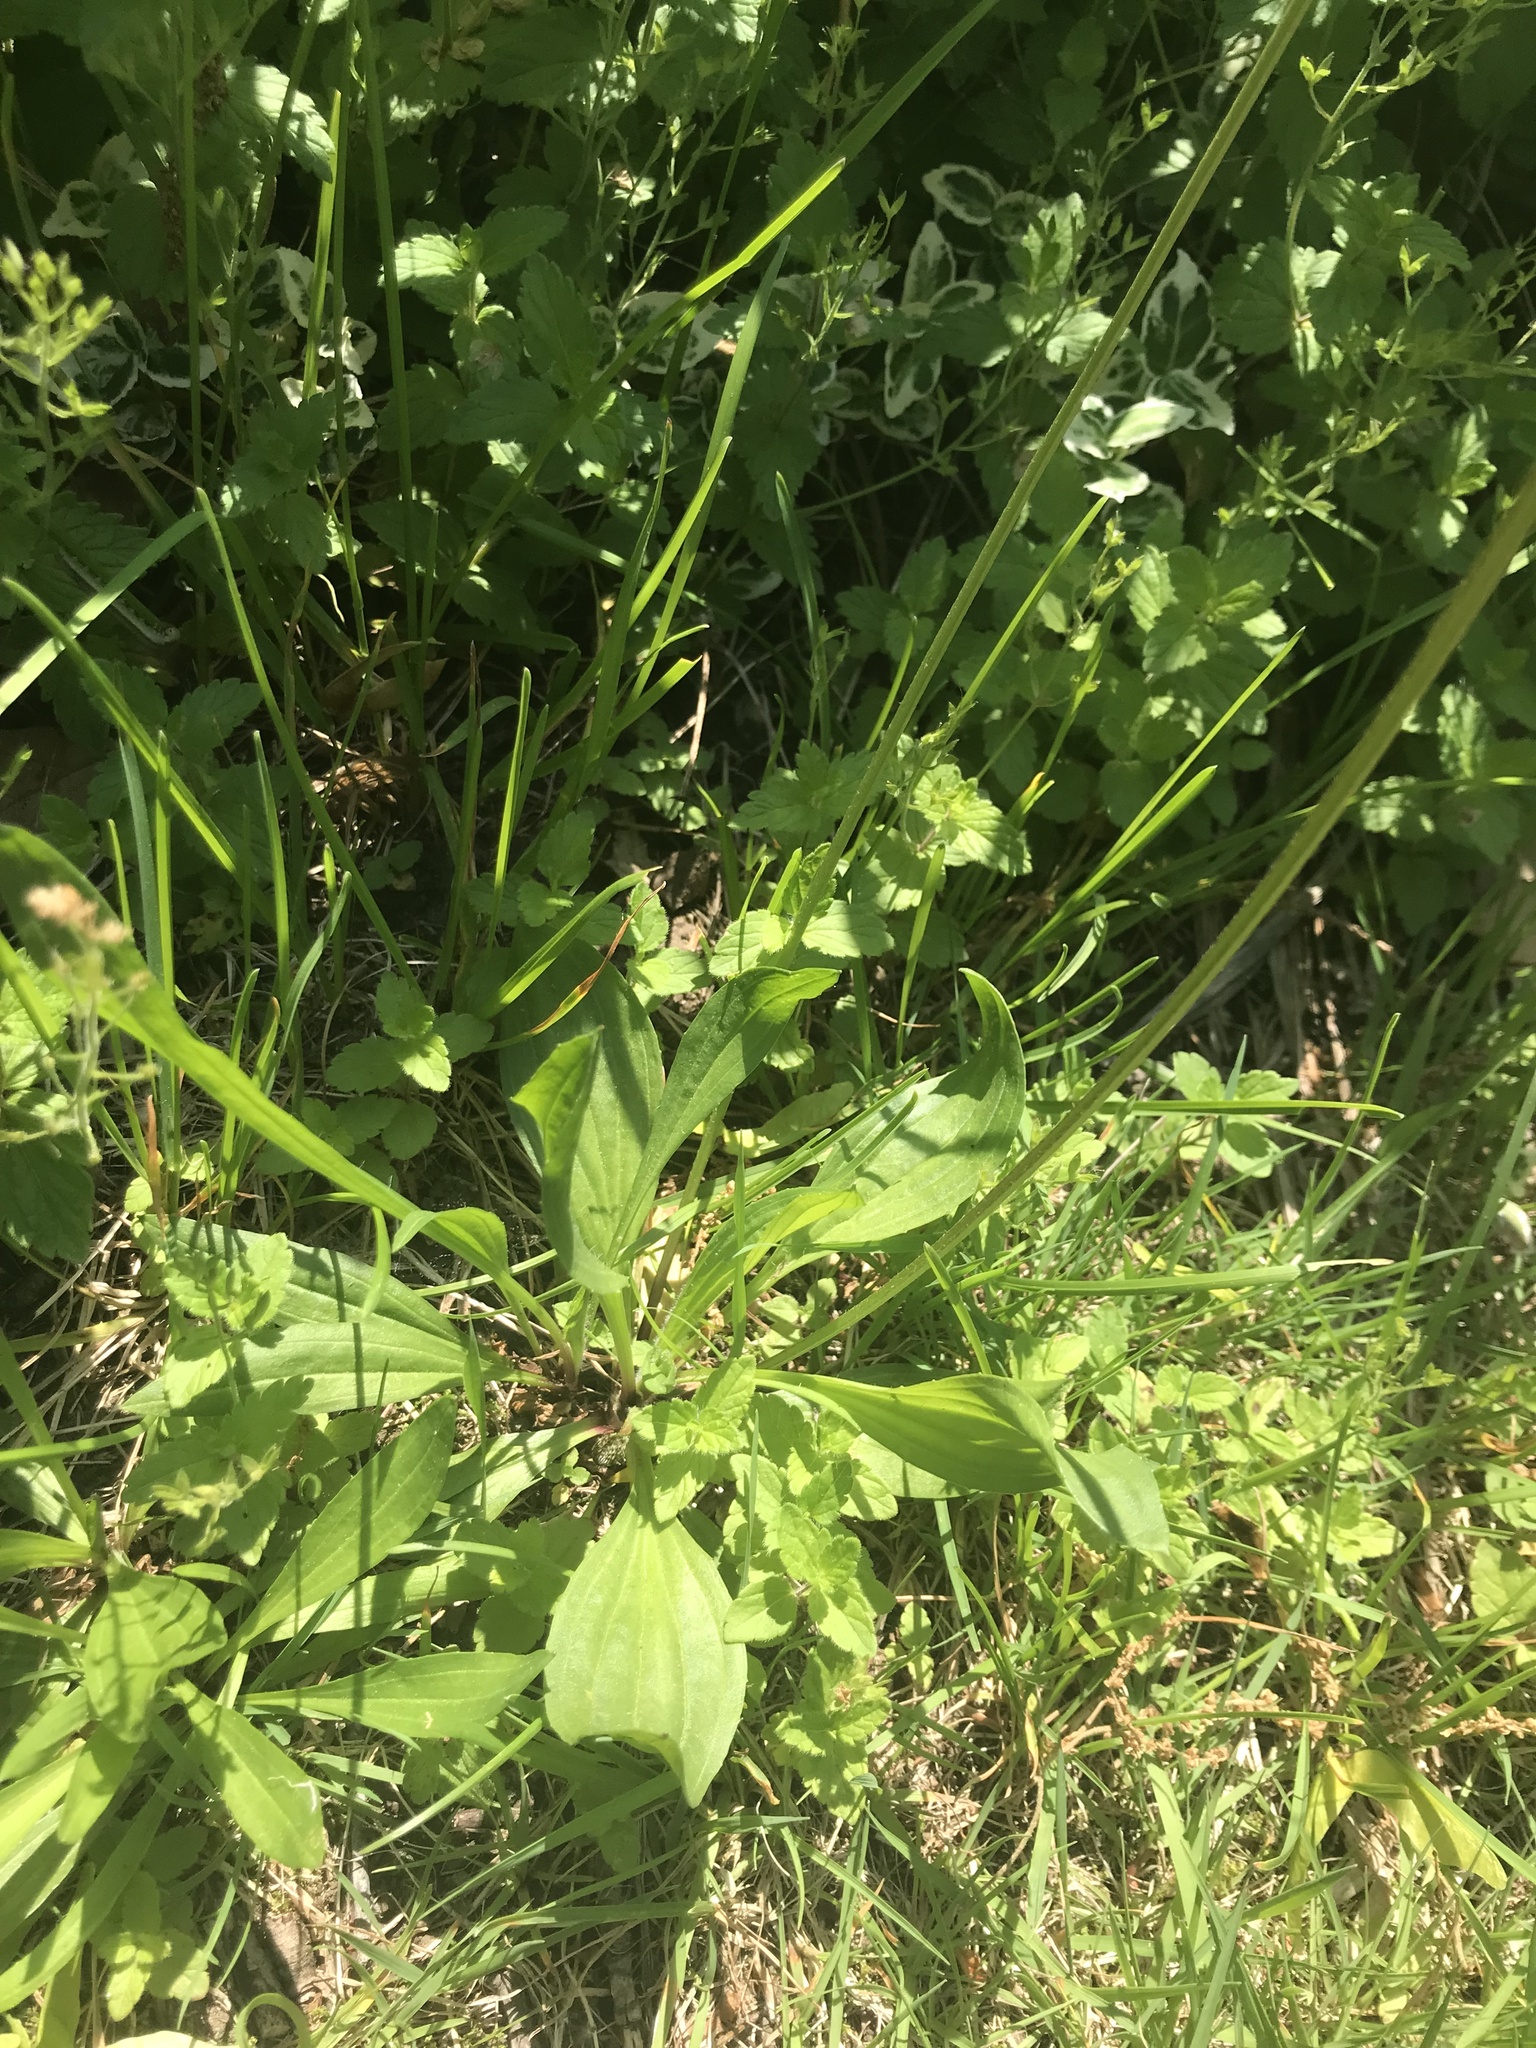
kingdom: Plantae
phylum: Tracheophyta
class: Magnoliopsida
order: Lamiales
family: Plantaginaceae
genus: Plantago
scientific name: Plantago lanceolata
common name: Ribwort plantain
